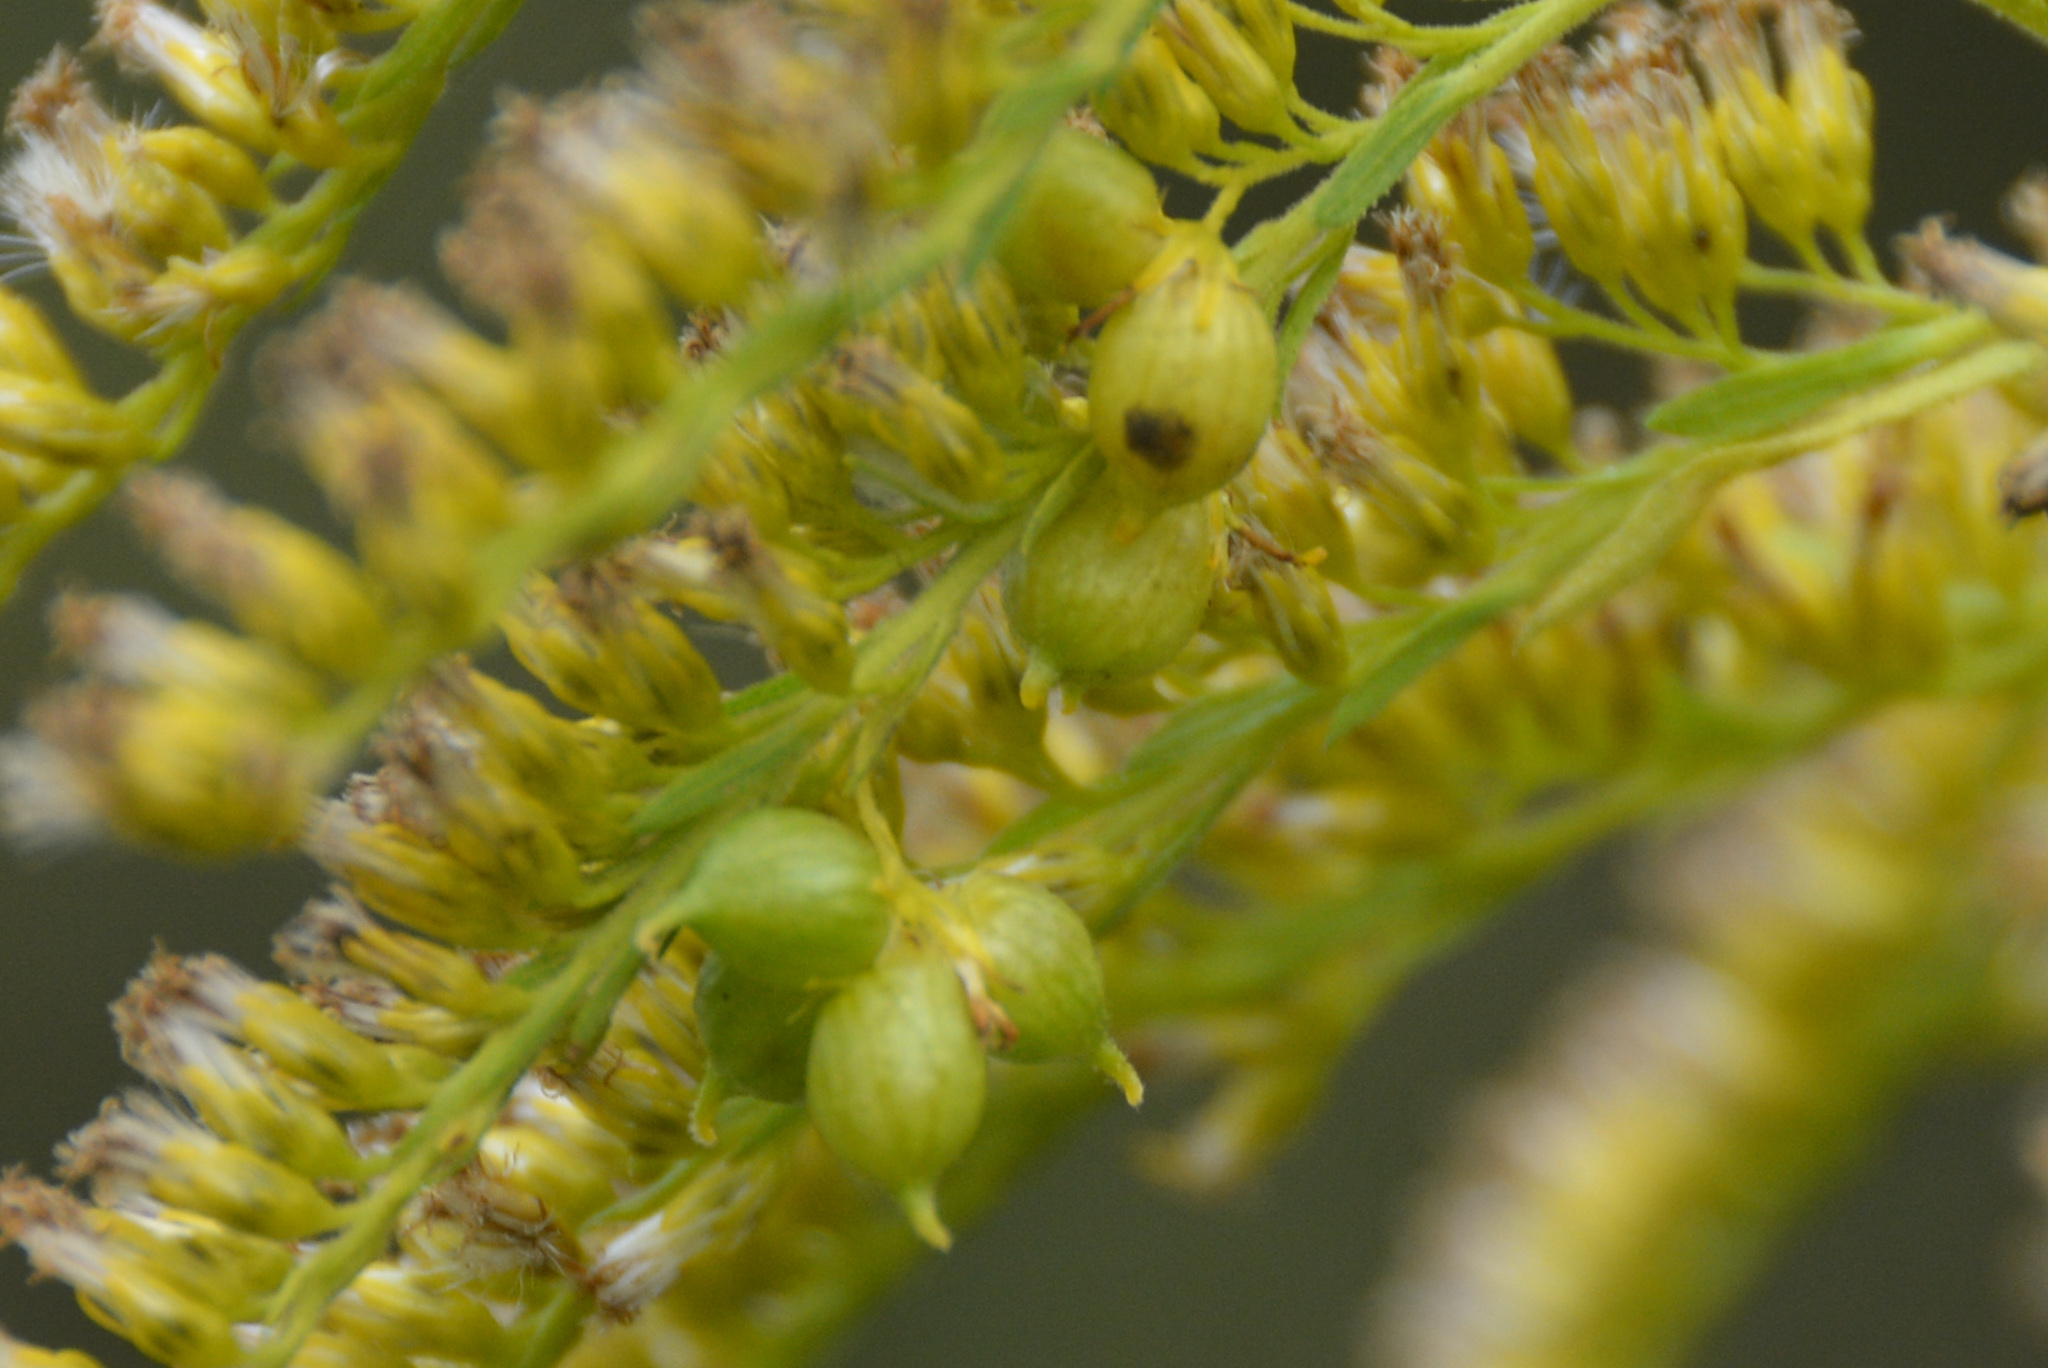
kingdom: Animalia
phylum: Arthropoda
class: Insecta
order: Diptera
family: Cecidomyiidae
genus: Schizomyia
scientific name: Schizomyia racemicola
